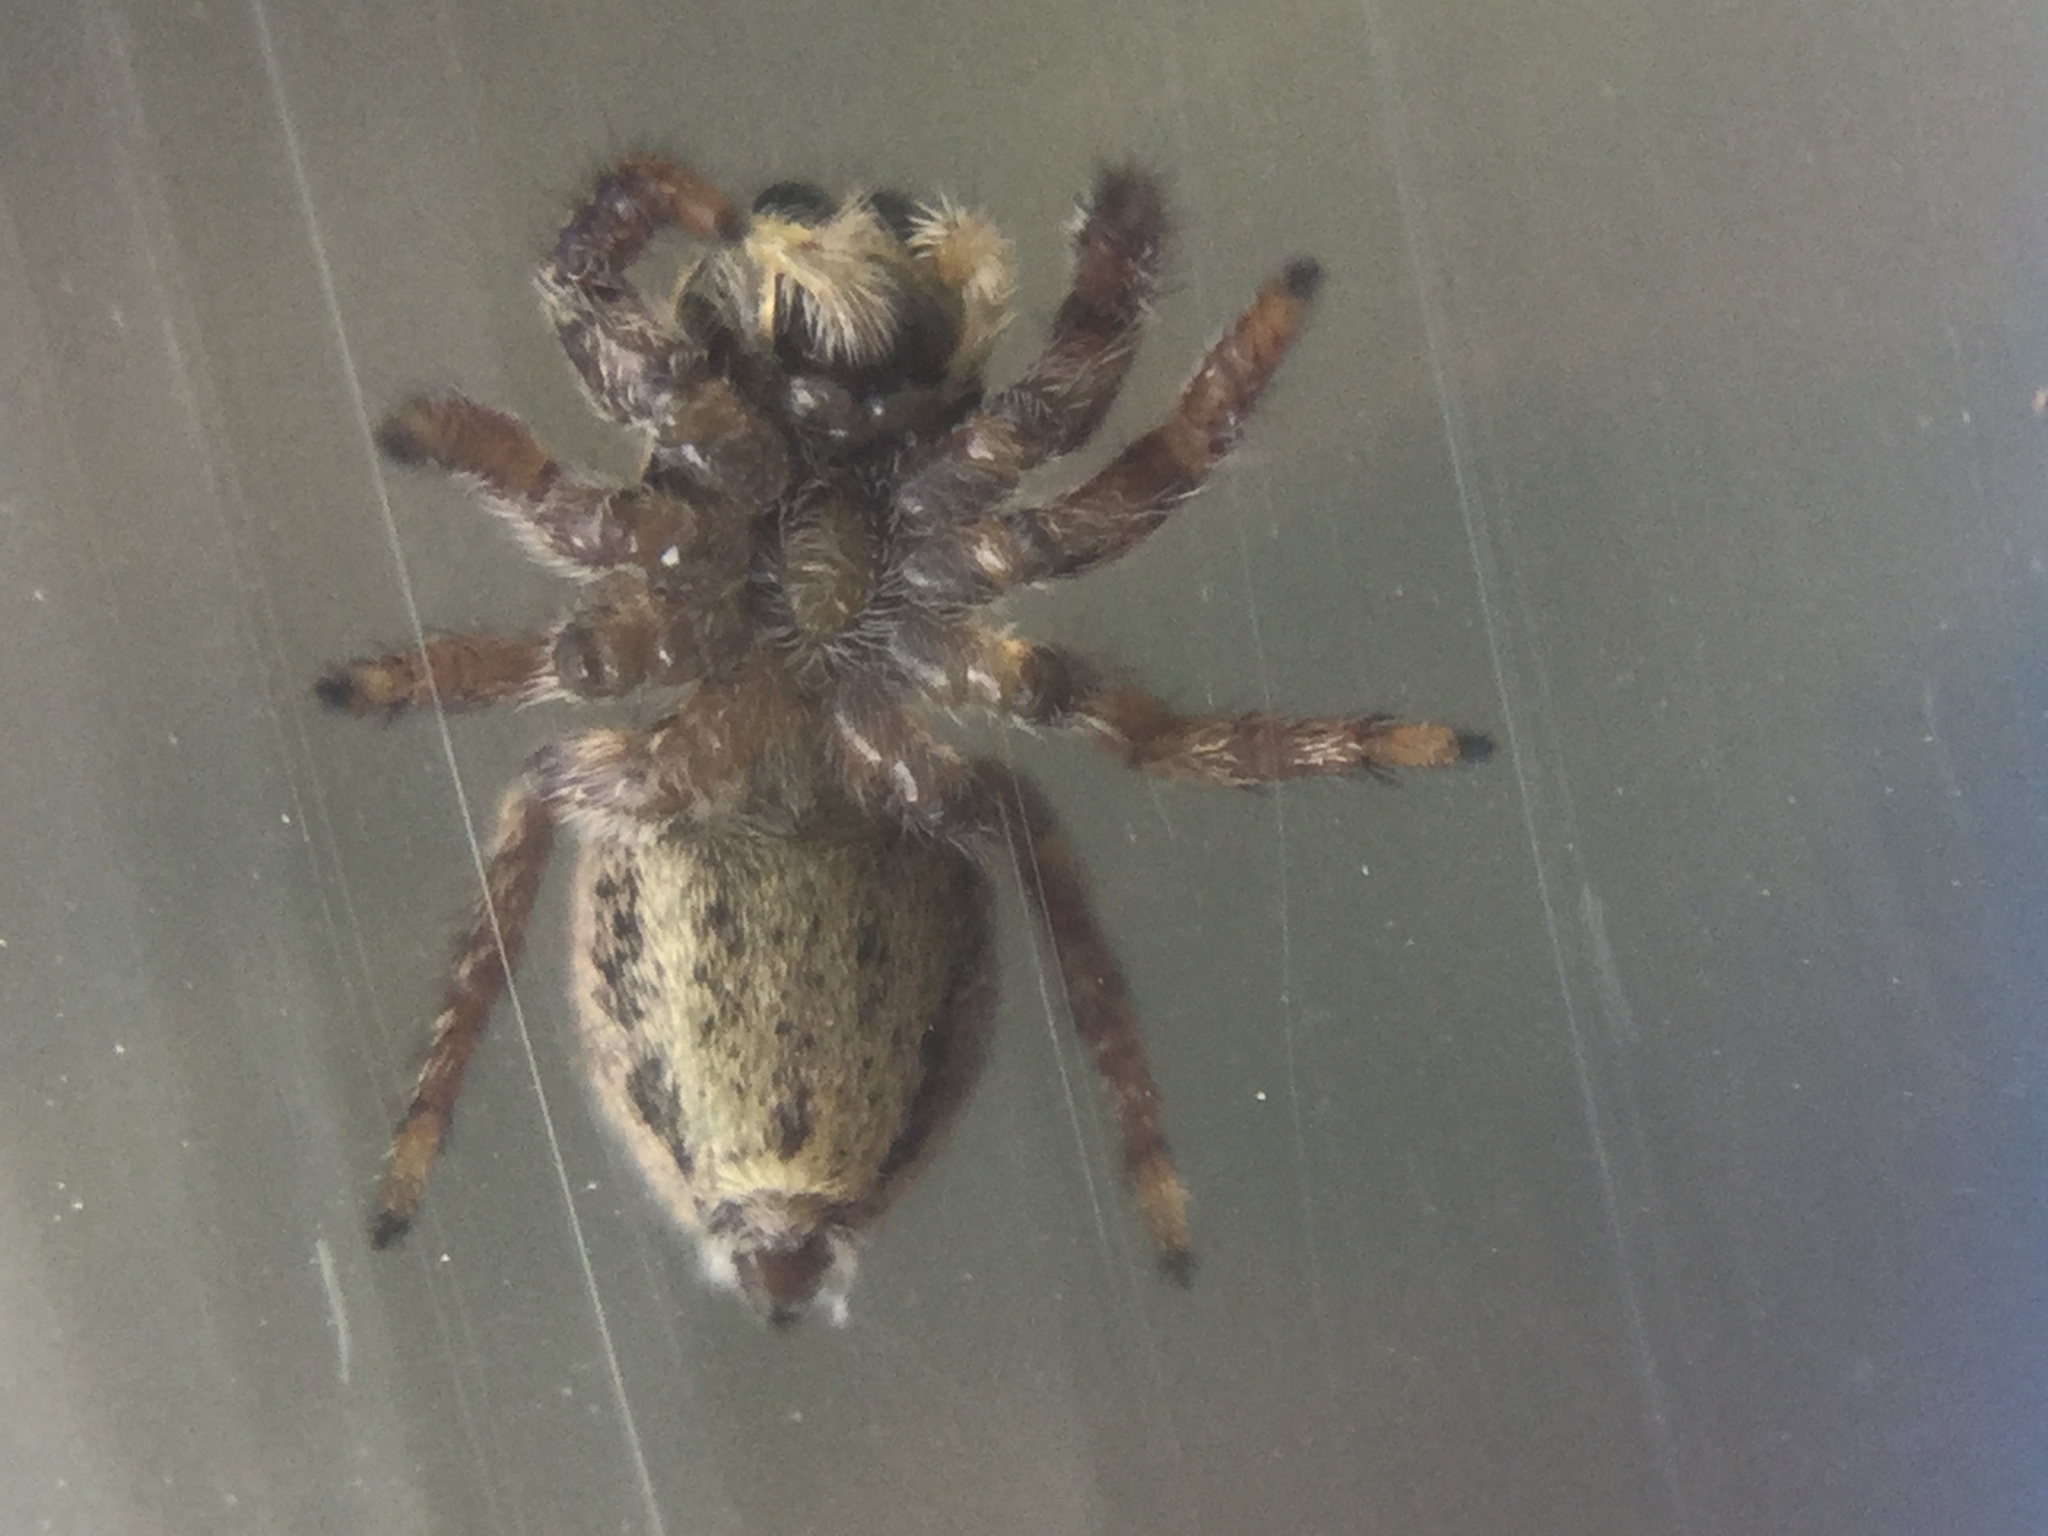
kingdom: Animalia
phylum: Arthropoda
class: Arachnida
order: Araneae
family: Salticidae
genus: Habronattus
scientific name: Habronattus coecatus
